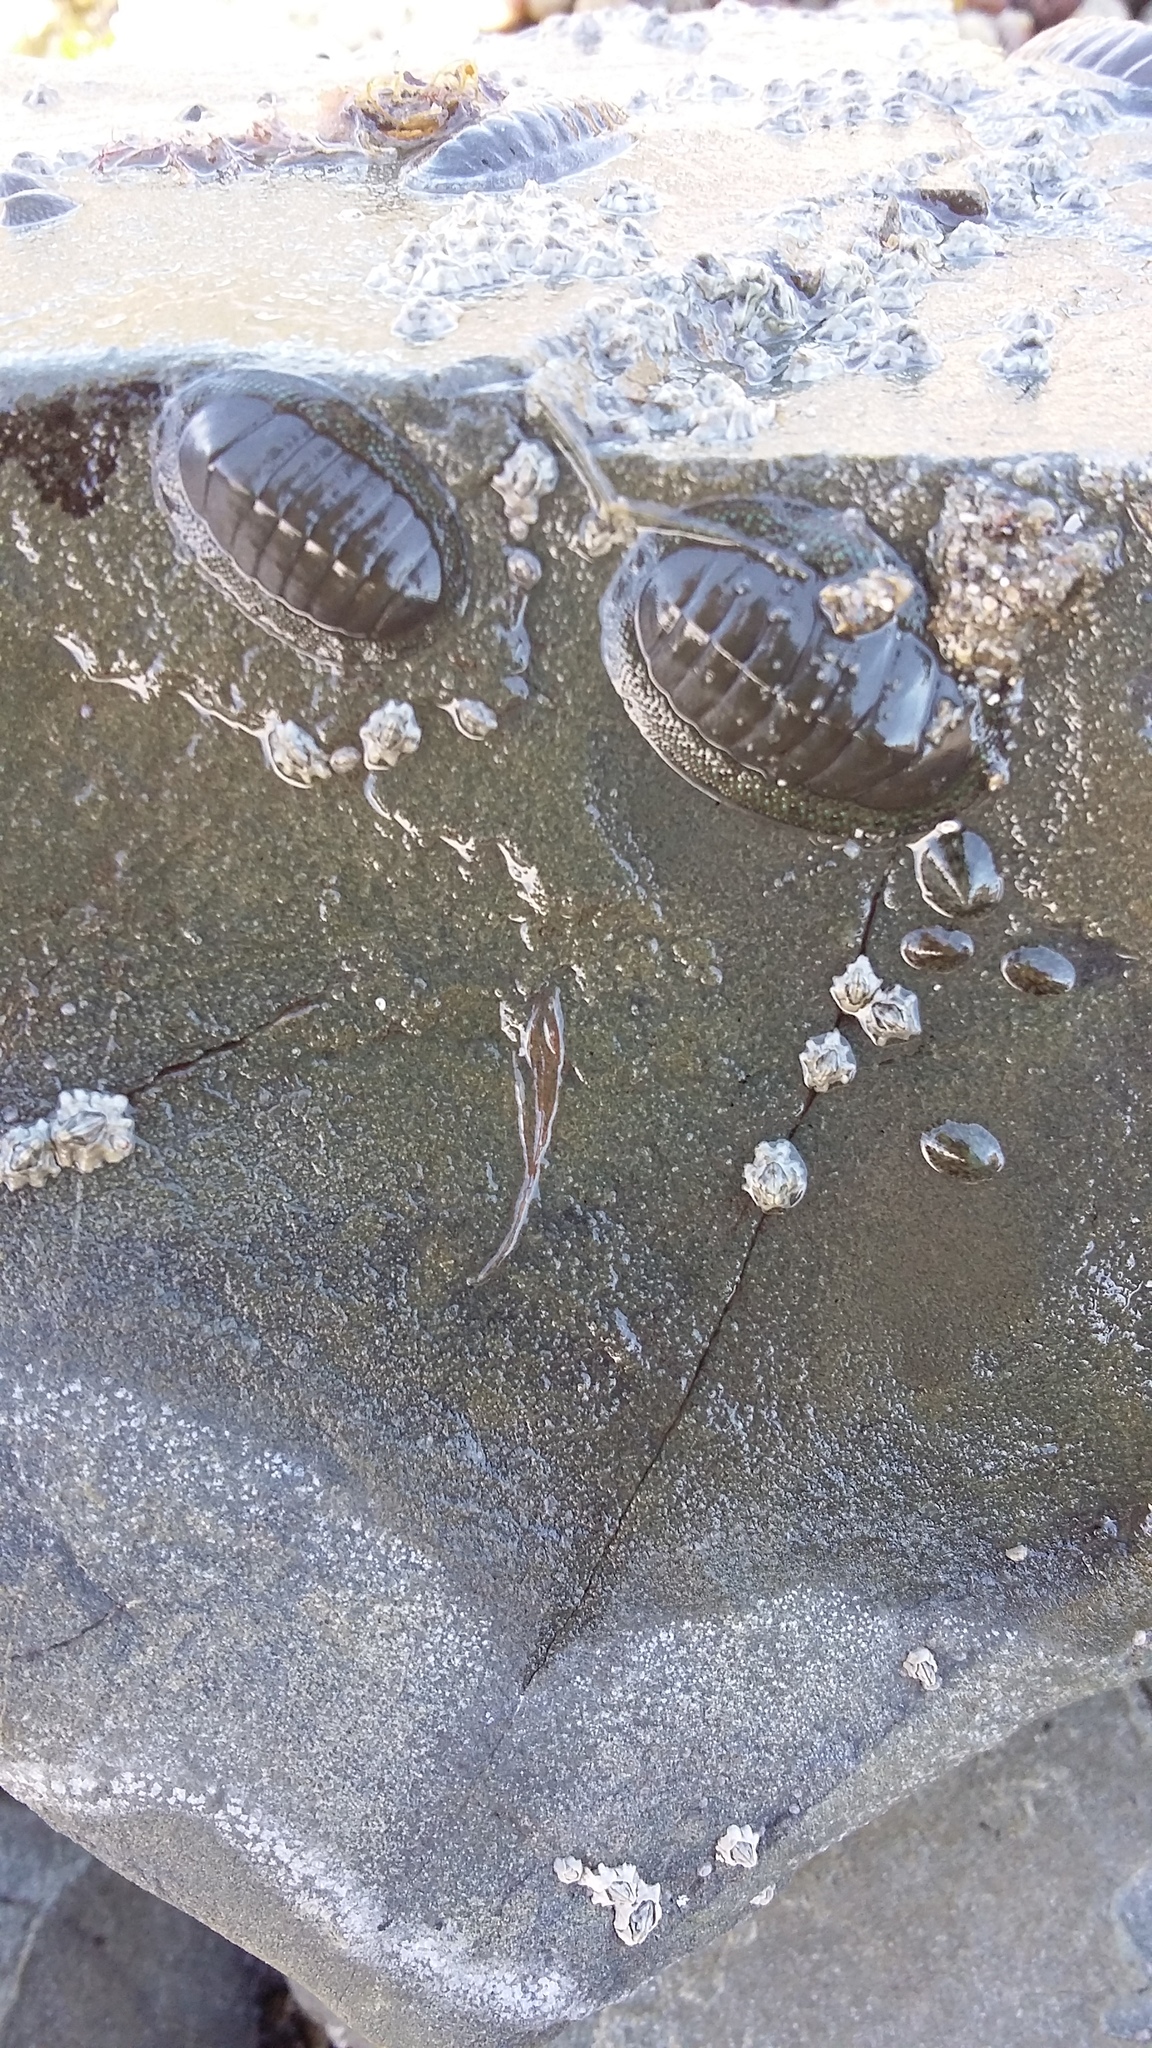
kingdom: Animalia
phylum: Mollusca
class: Polyplacophora
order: Chitonida
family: Chitonidae
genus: Chiton
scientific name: Chiton glaucus
